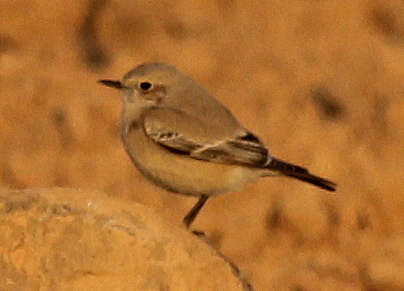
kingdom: Animalia
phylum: Chordata
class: Aves
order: Passeriformes
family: Muscicapidae
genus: Oenanthe
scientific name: Oenanthe deserti
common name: Desert wheatear
